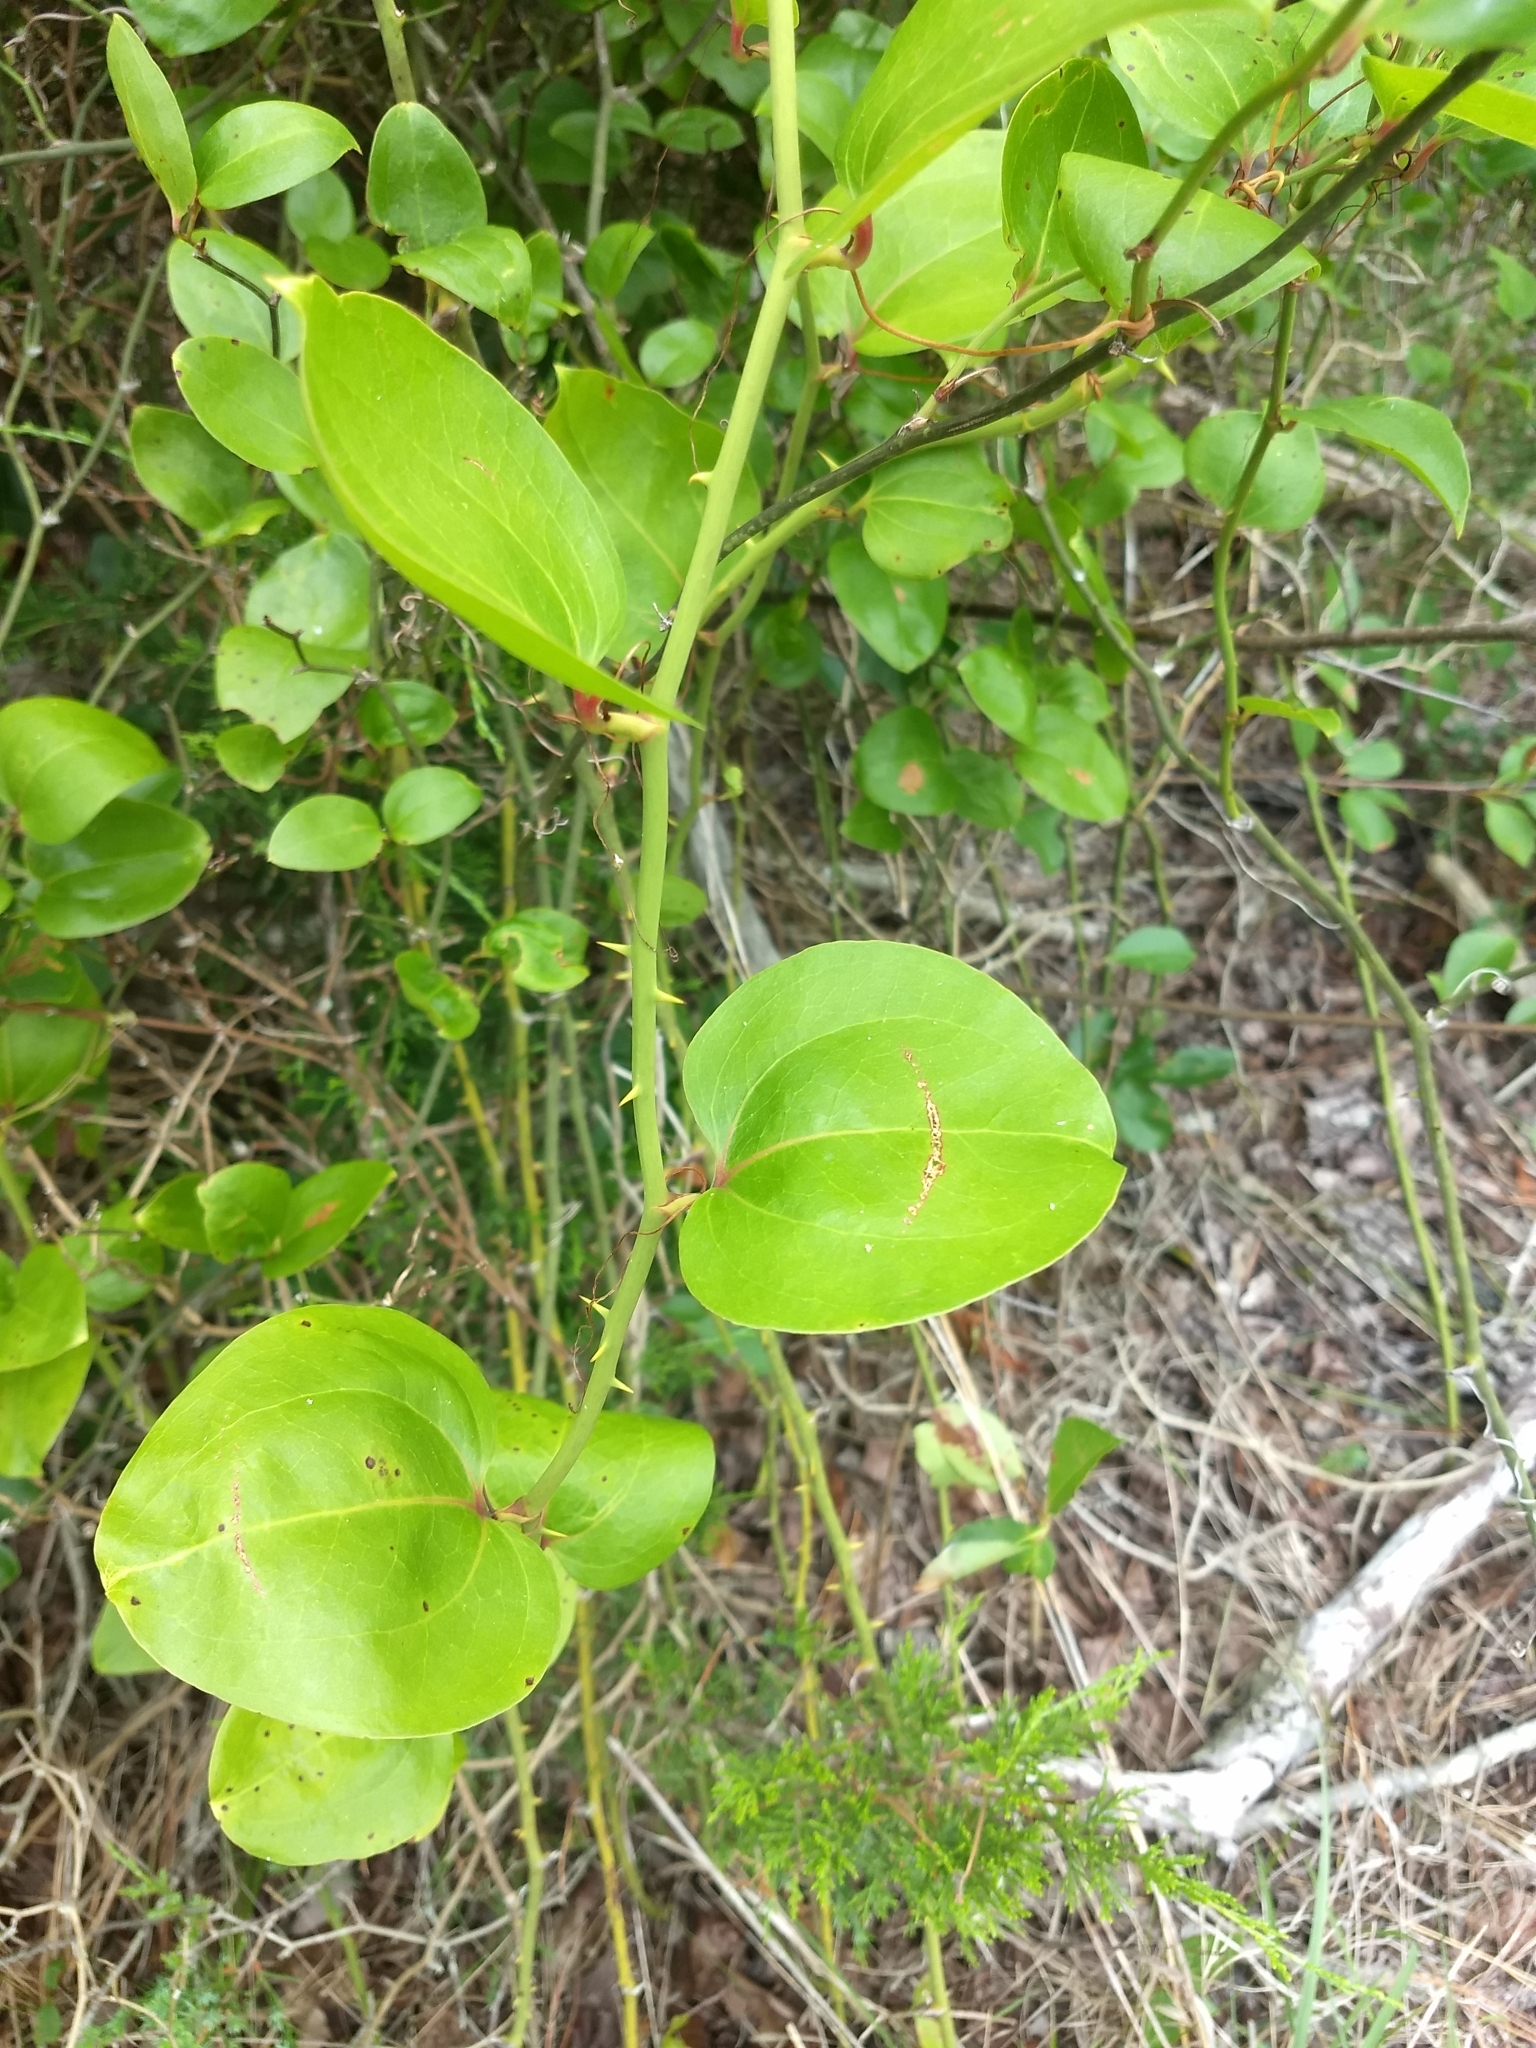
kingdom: Plantae
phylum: Tracheophyta
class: Liliopsida
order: Liliales
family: Smilacaceae
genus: Smilax
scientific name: Smilax rotundifolia
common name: Bullbriar
